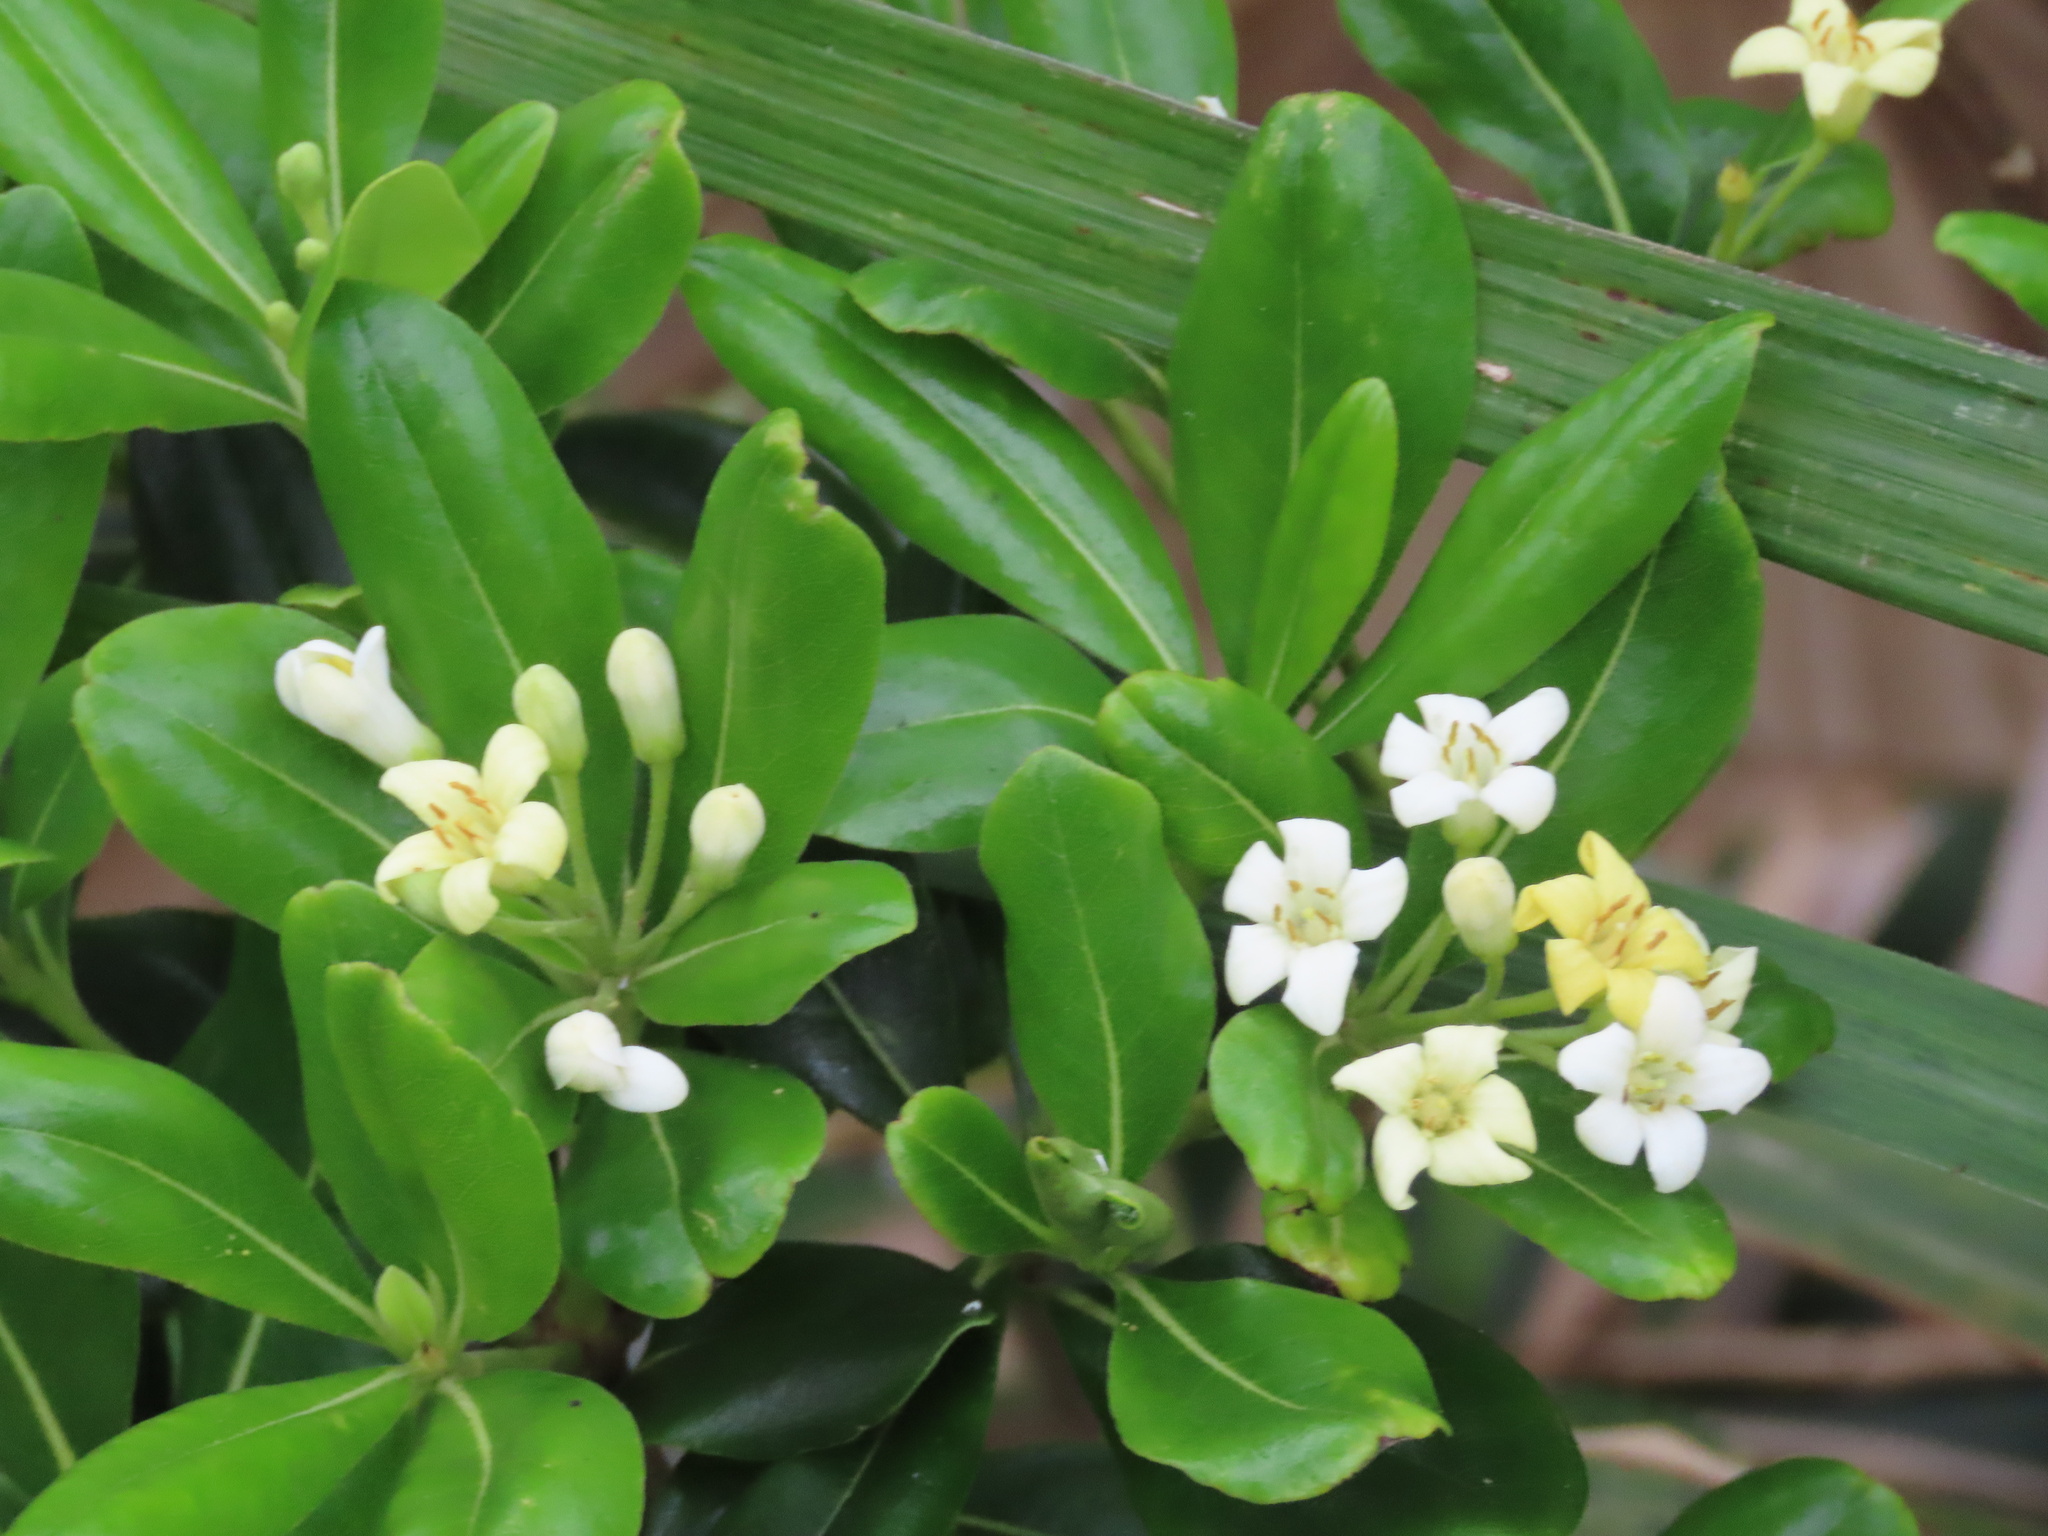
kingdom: Plantae
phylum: Tracheophyta
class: Magnoliopsida
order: Apiales
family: Pittosporaceae
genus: Pittosporum
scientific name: Pittosporum tobira
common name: Japanese cheesewood
